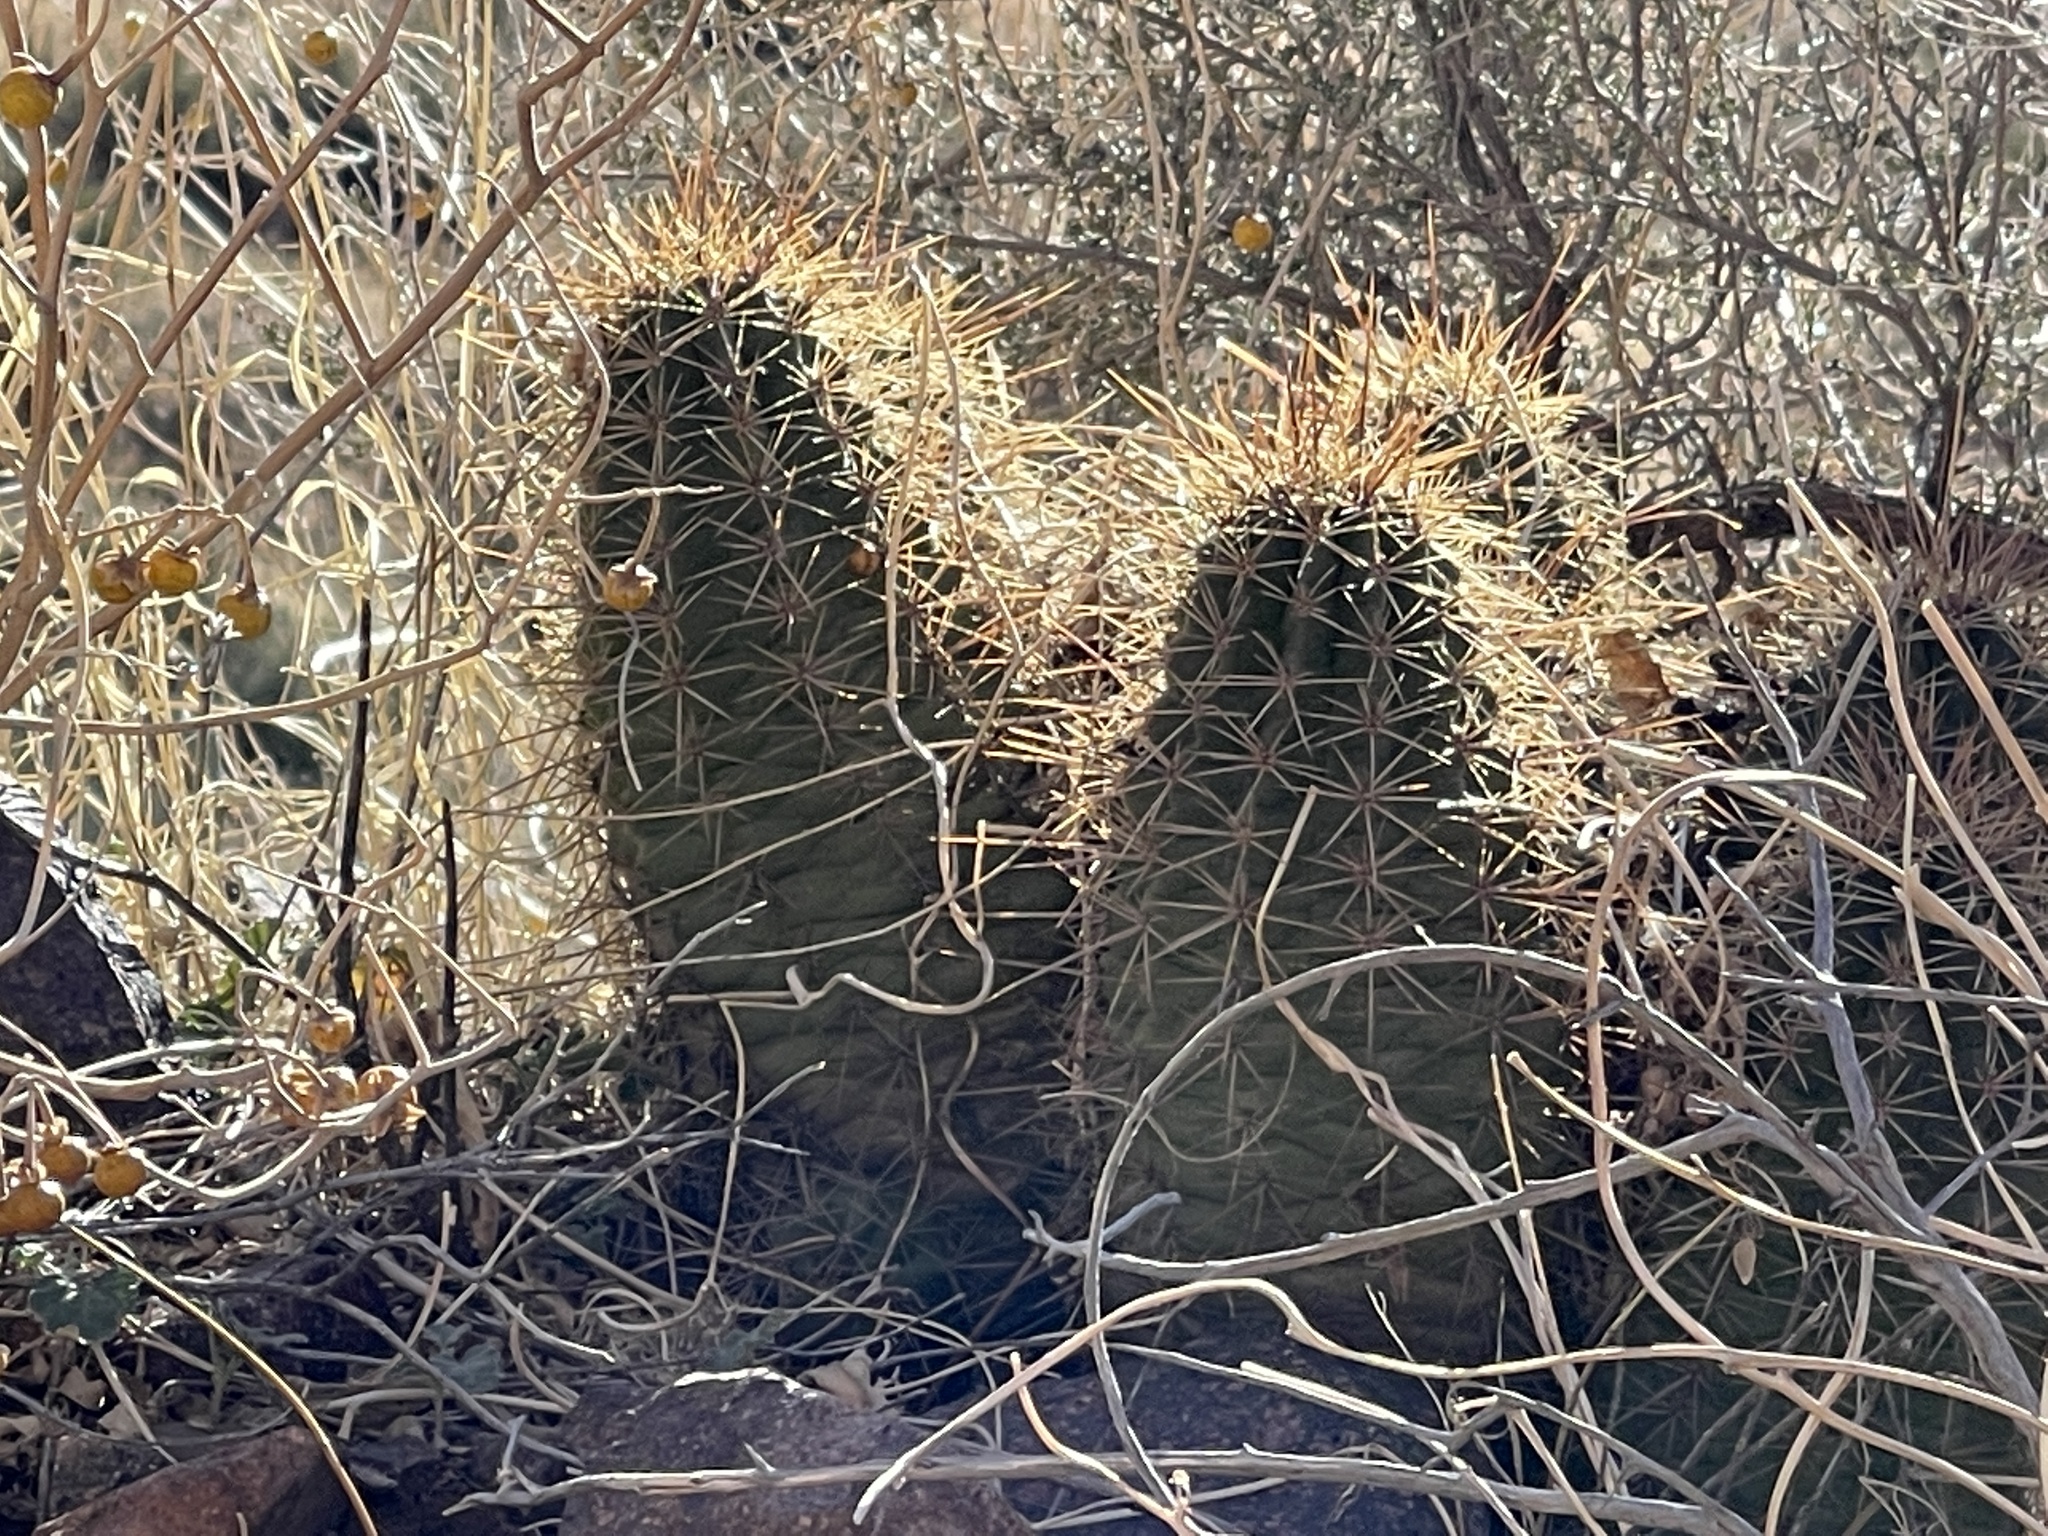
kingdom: Plantae
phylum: Tracheophyta
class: Magnoliopsida
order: Caryophyllales
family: Cactaceae
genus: Echinocereus
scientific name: Echinocereus coccineus
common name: Scarlet hedgehog cactus
